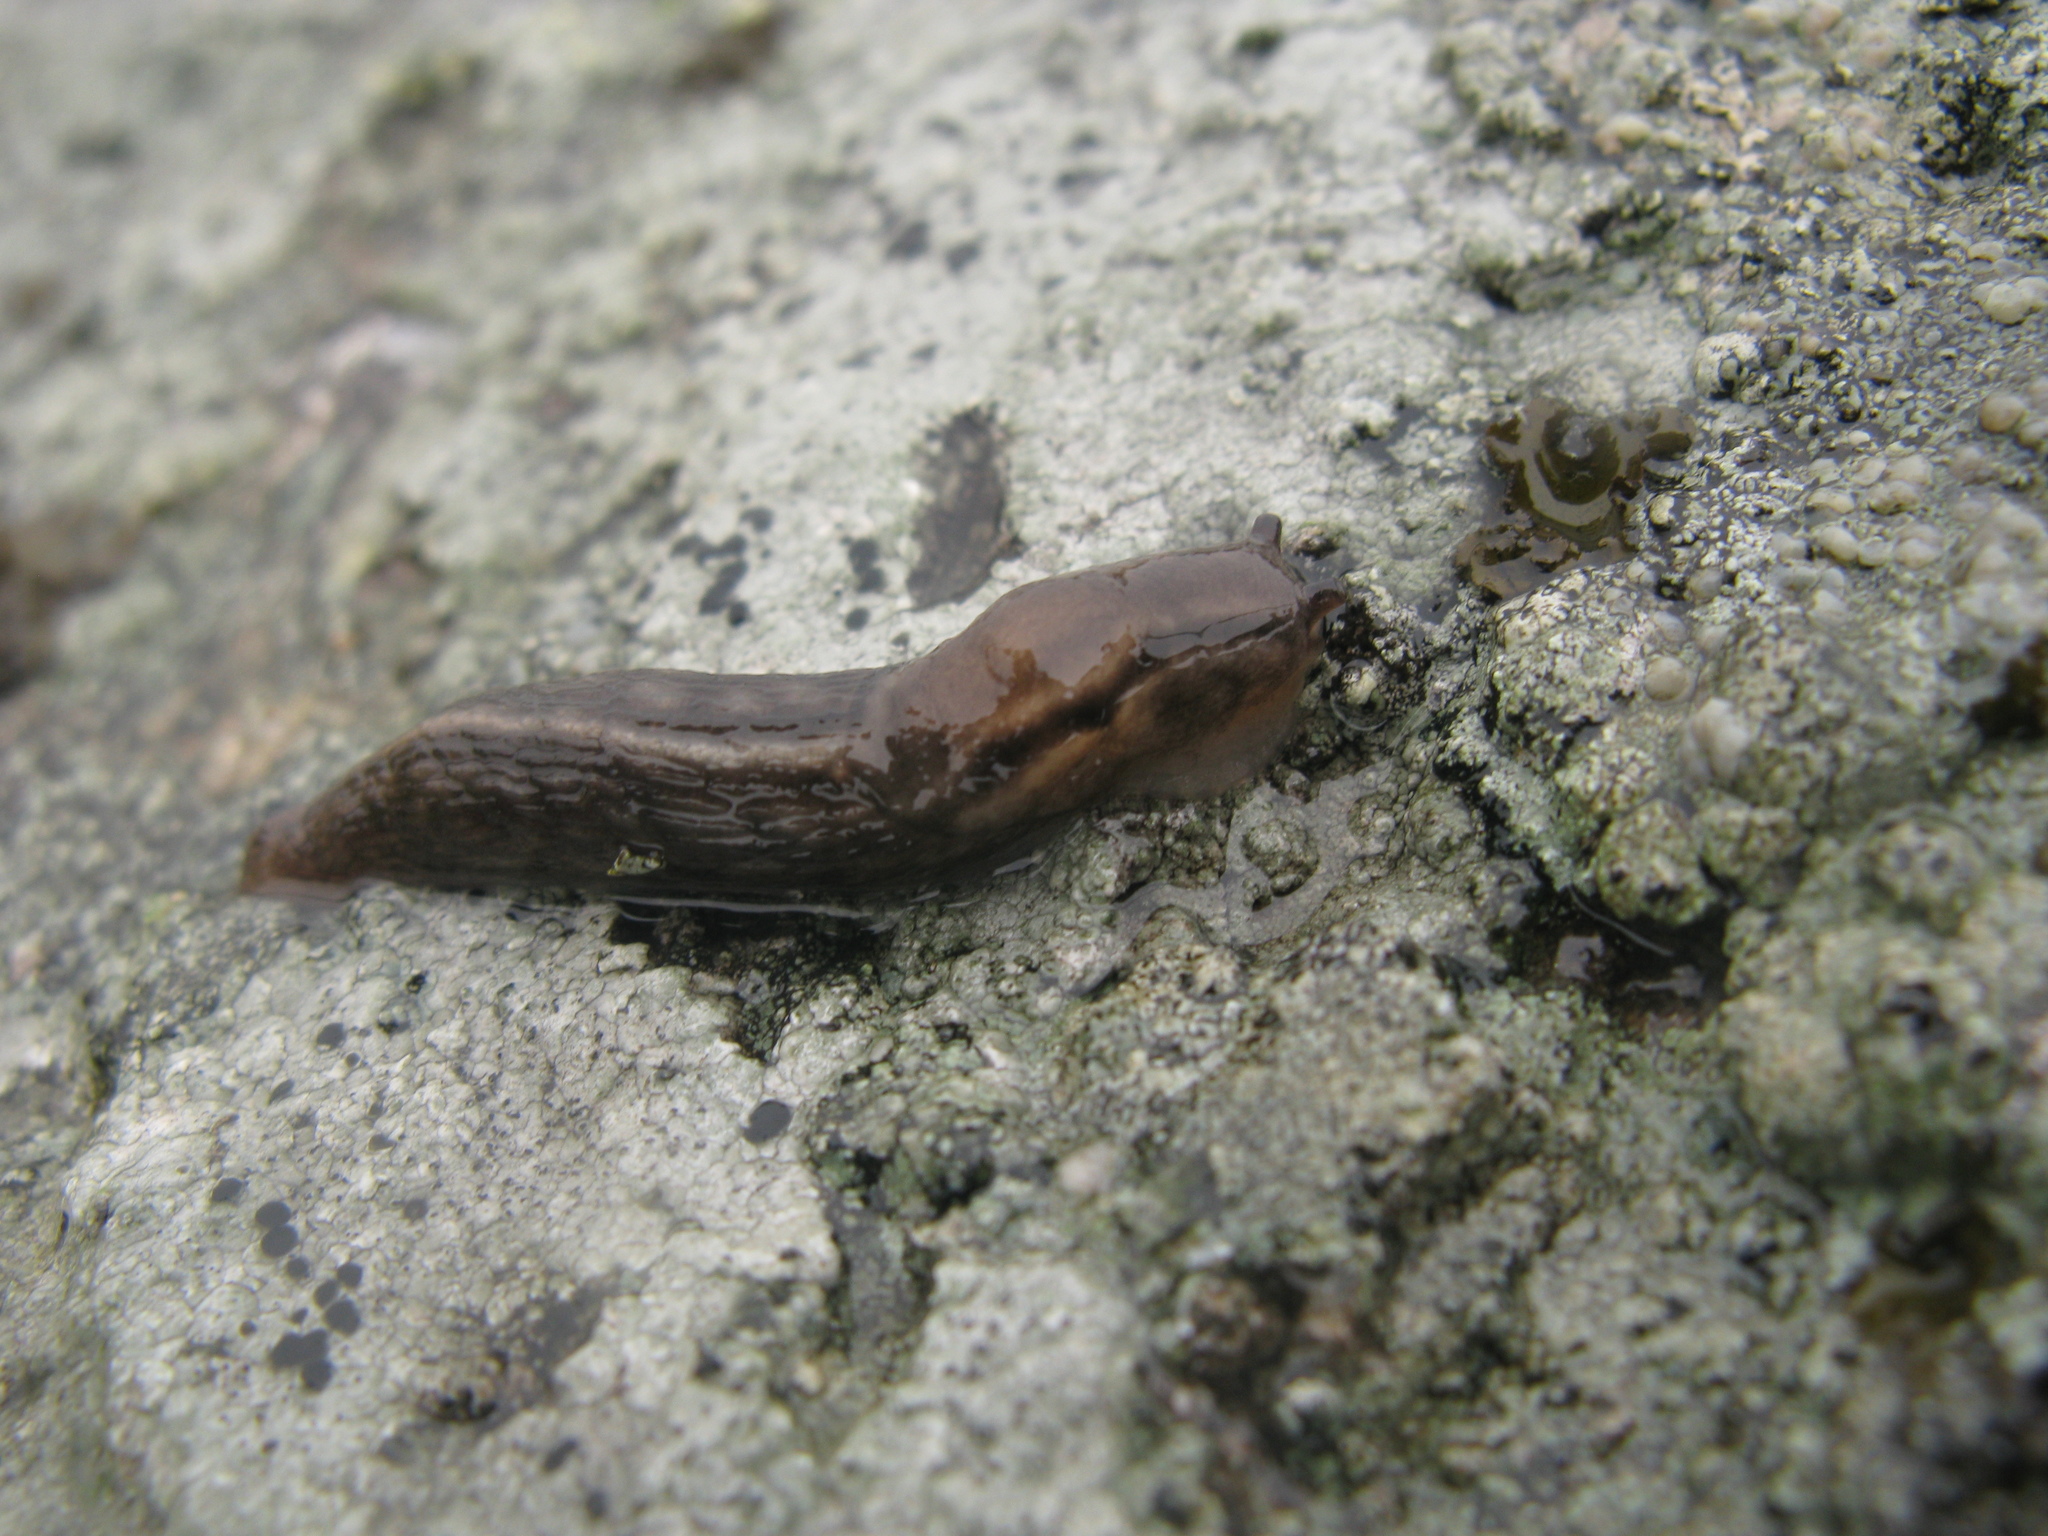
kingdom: Animalia
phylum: Mollusca
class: Gastropoda
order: Stylommatophora
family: Limacidae
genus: Lehmannia
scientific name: Lehmannia macroflagellata
